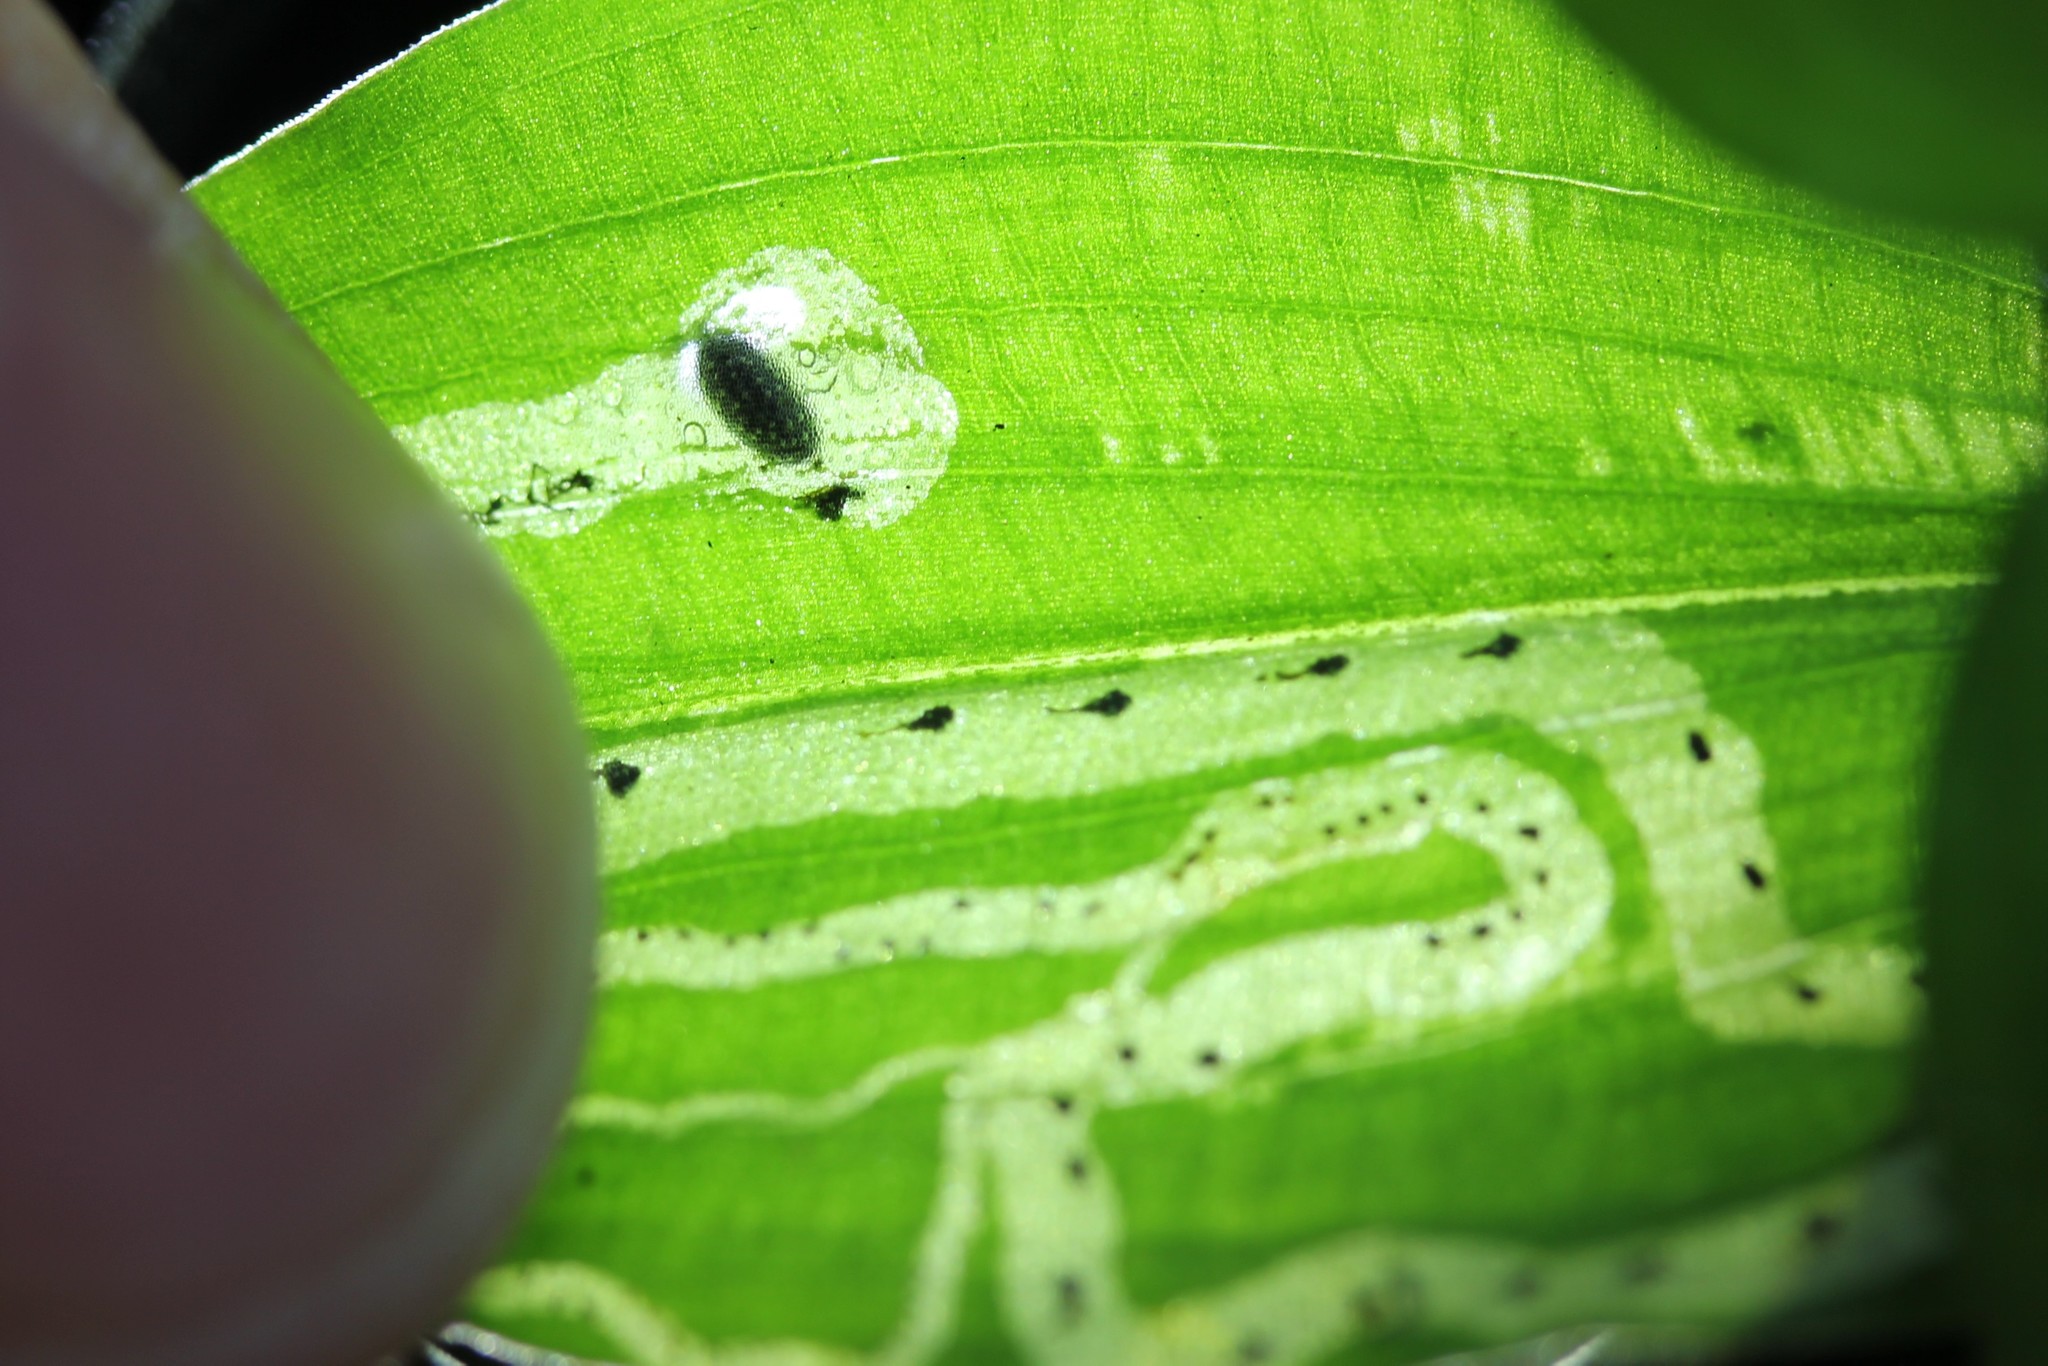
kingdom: Animalia
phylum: Arthropoda
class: Insecta
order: Diptera
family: Agromyzidae
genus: Liriomyza
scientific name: Liriomyza commelinae
